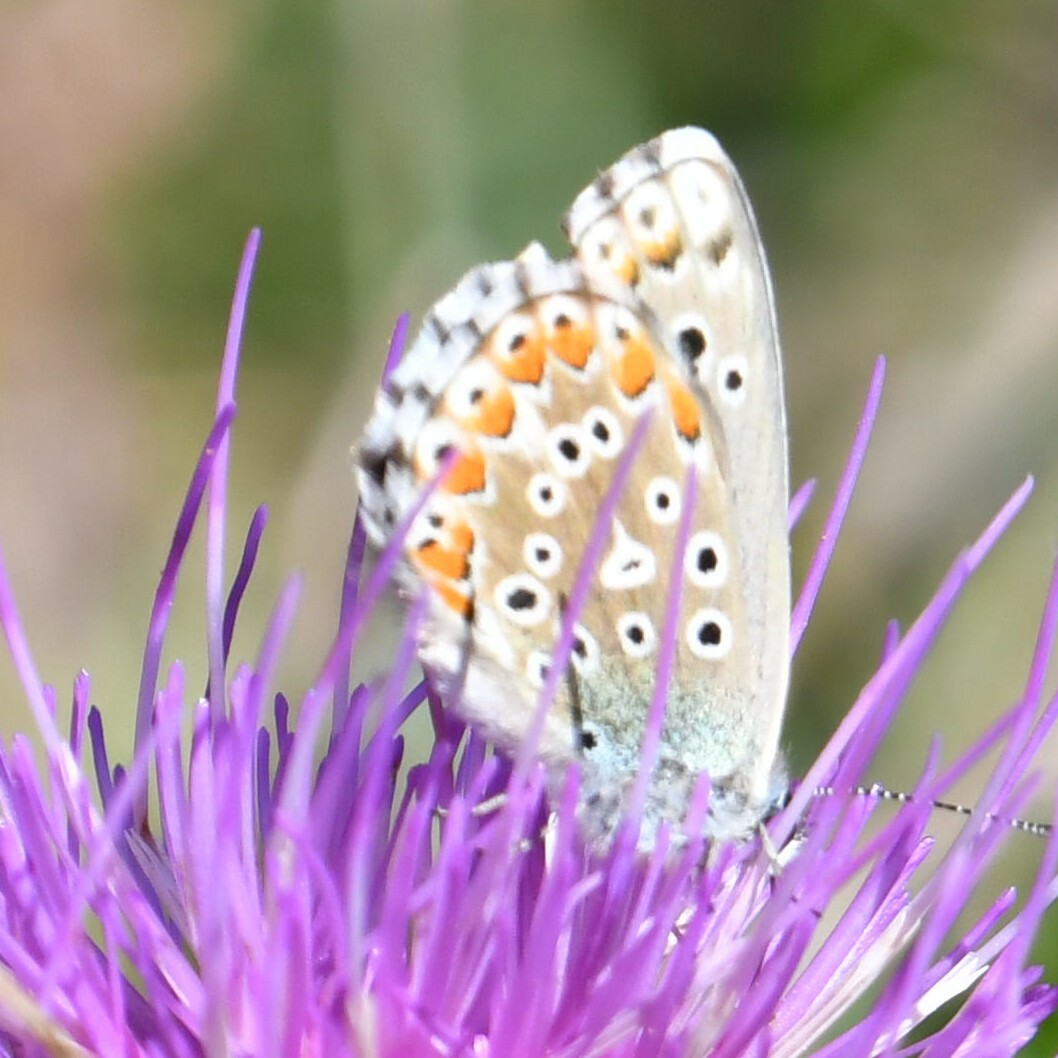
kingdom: Animalia
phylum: Arthropoda
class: Insecta
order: Lepidoptera
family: Lycaenidae
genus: Lysandra
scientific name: Lysandra bellargus
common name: Adonis blue
